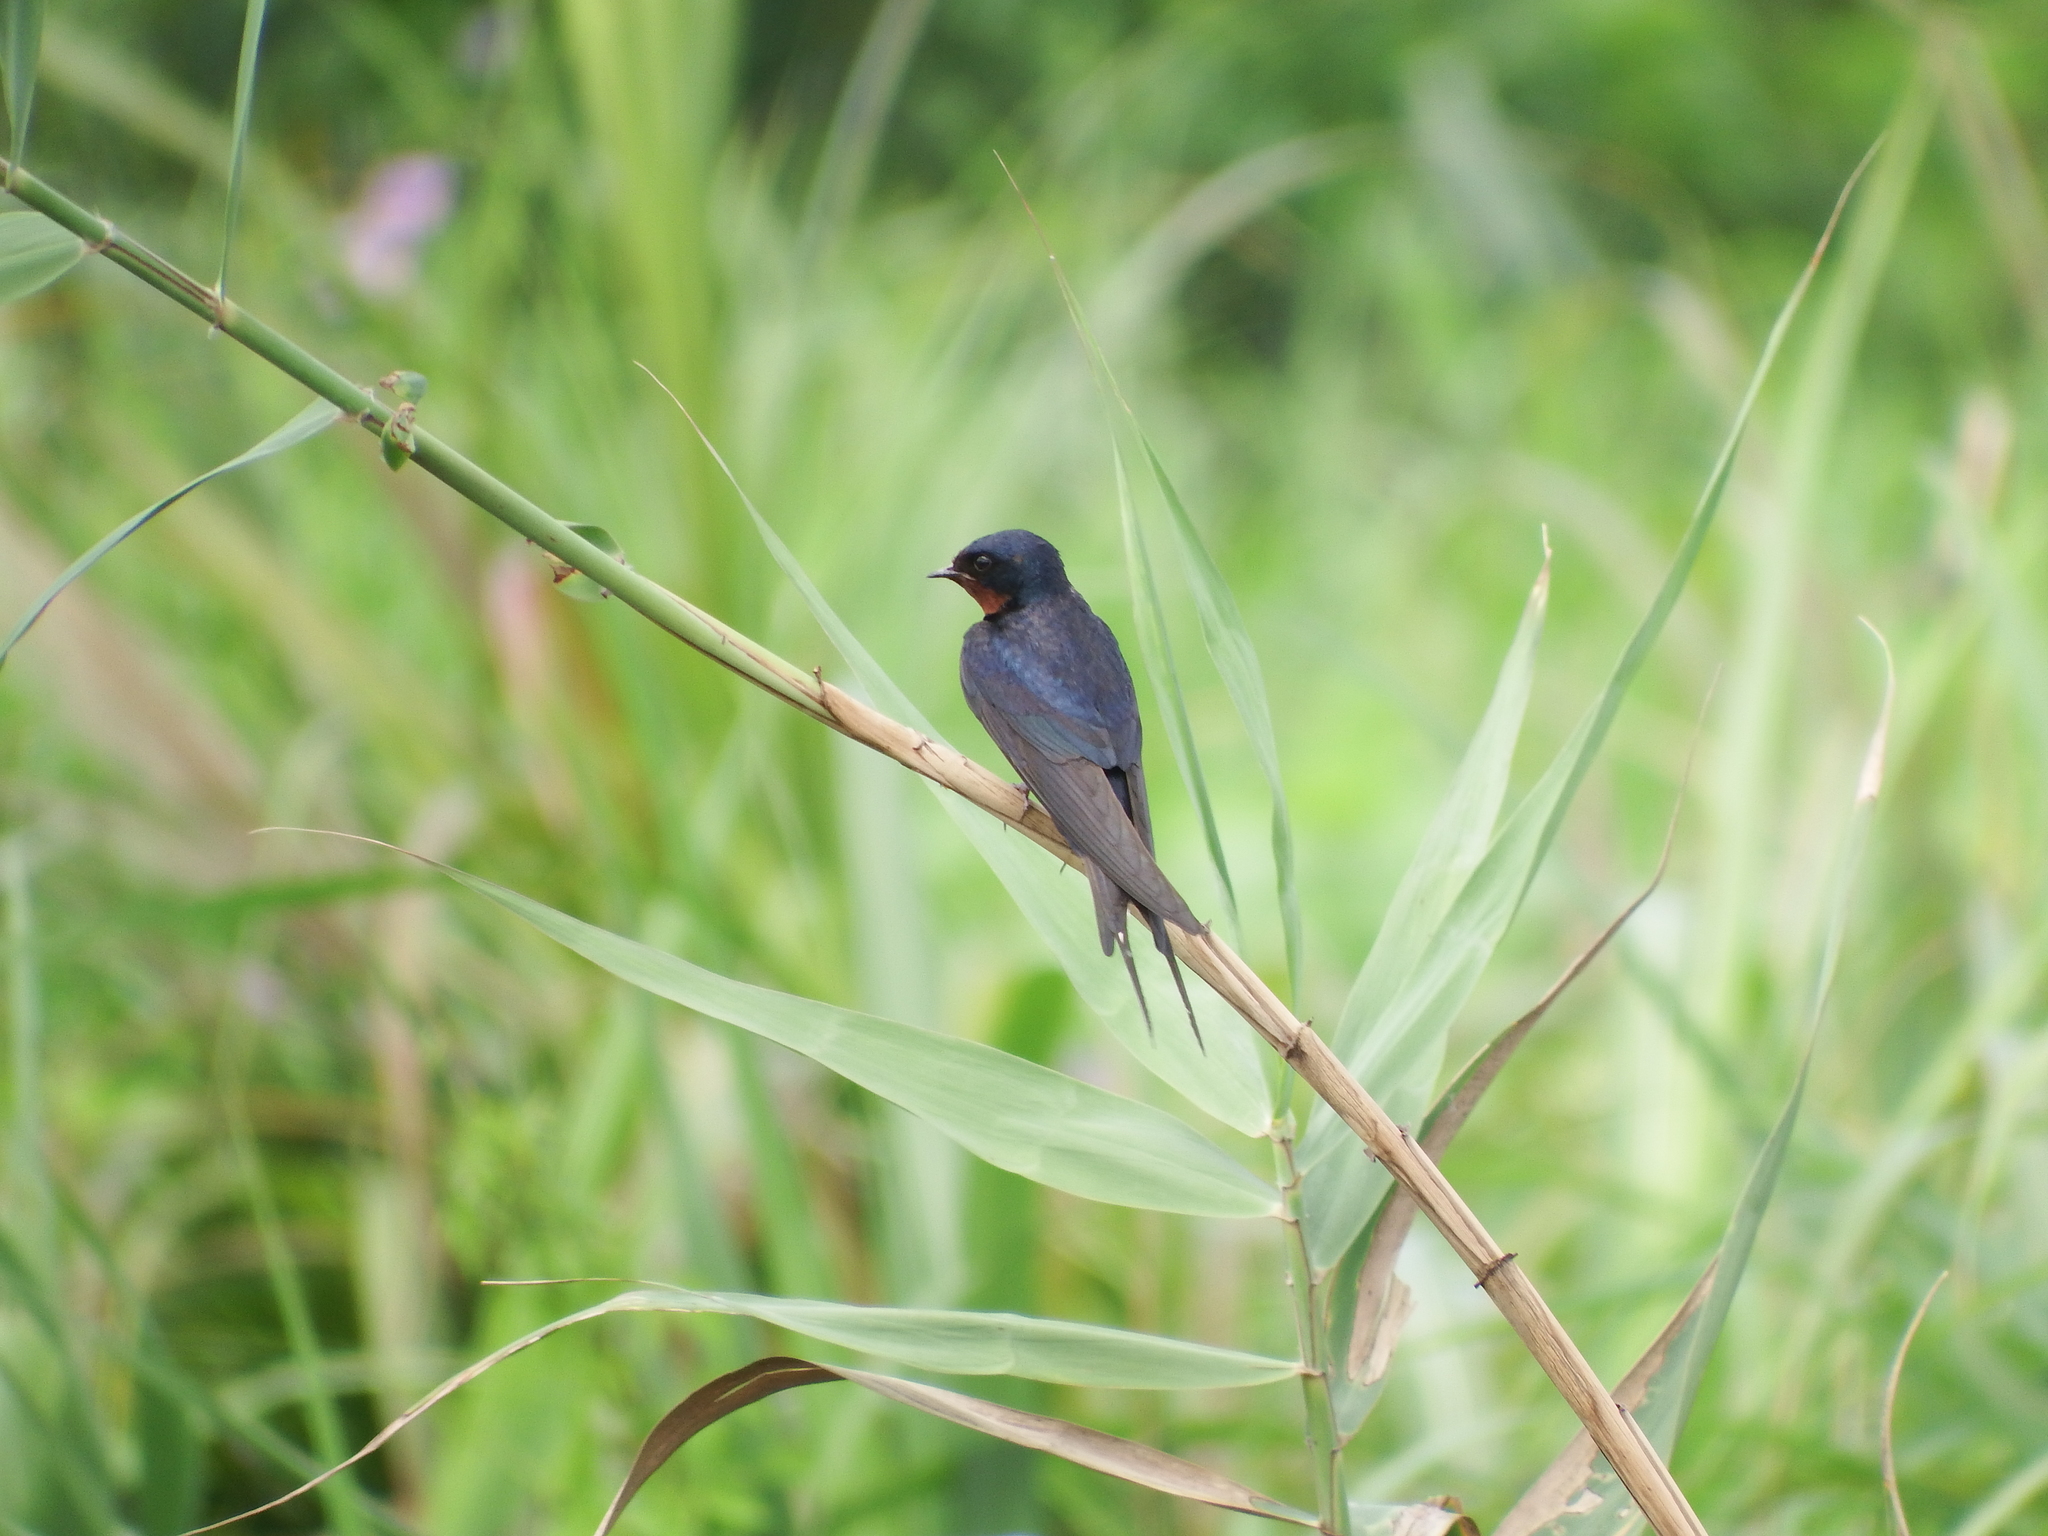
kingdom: Animalia
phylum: Chordata
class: Aves
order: Passeriformes
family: Hirundinidae
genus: Hirundo
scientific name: Hirundo rustica
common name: Barn swallow
